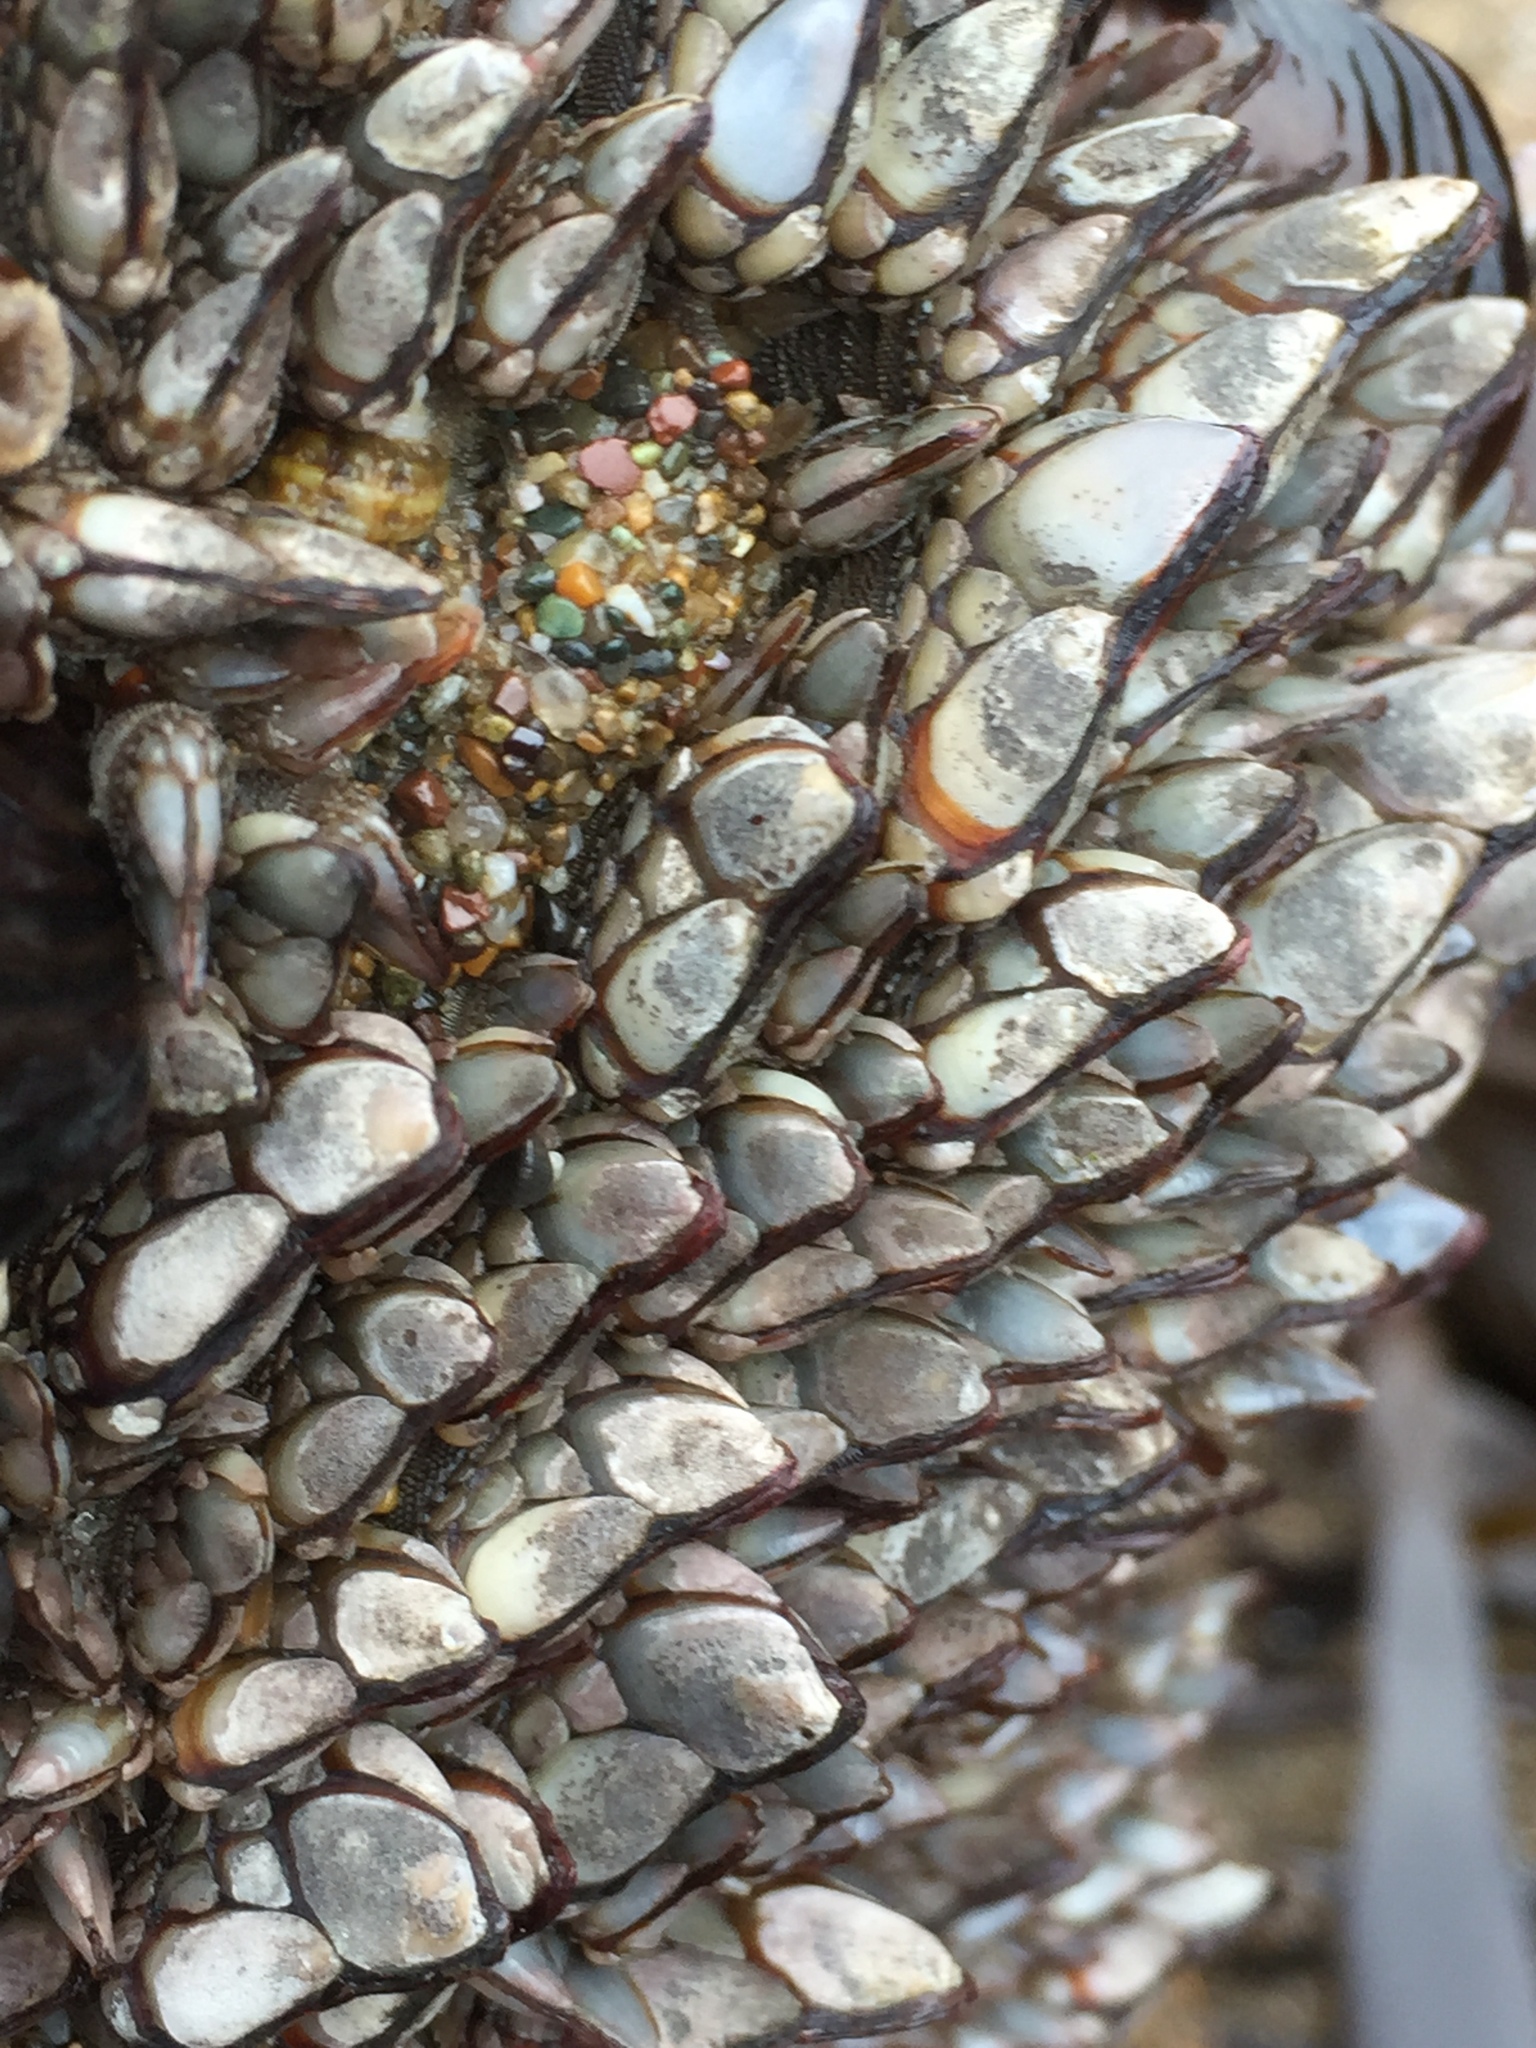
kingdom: Animalia
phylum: Arthropoda
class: Maxillopoda
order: Pedunculata
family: Pollicipedidae
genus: Pollicipes
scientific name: Pollicipes polymerus
